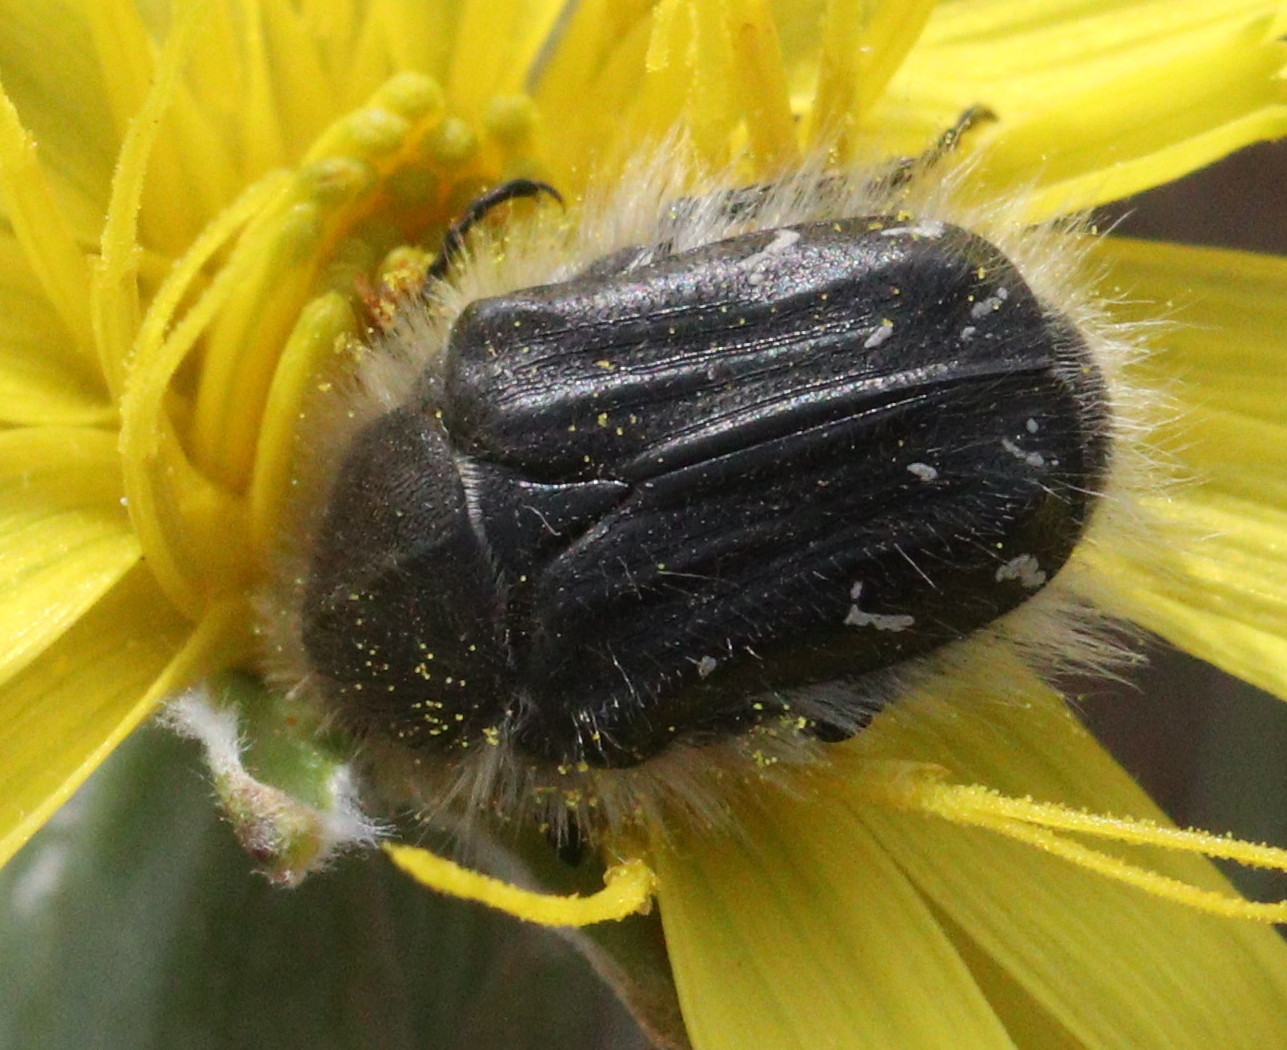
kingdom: Animalia
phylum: Arthropoda
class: Insecta
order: Coleoptera
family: Scarabaeidae
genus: Tropinota
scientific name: Tropinota hirta
